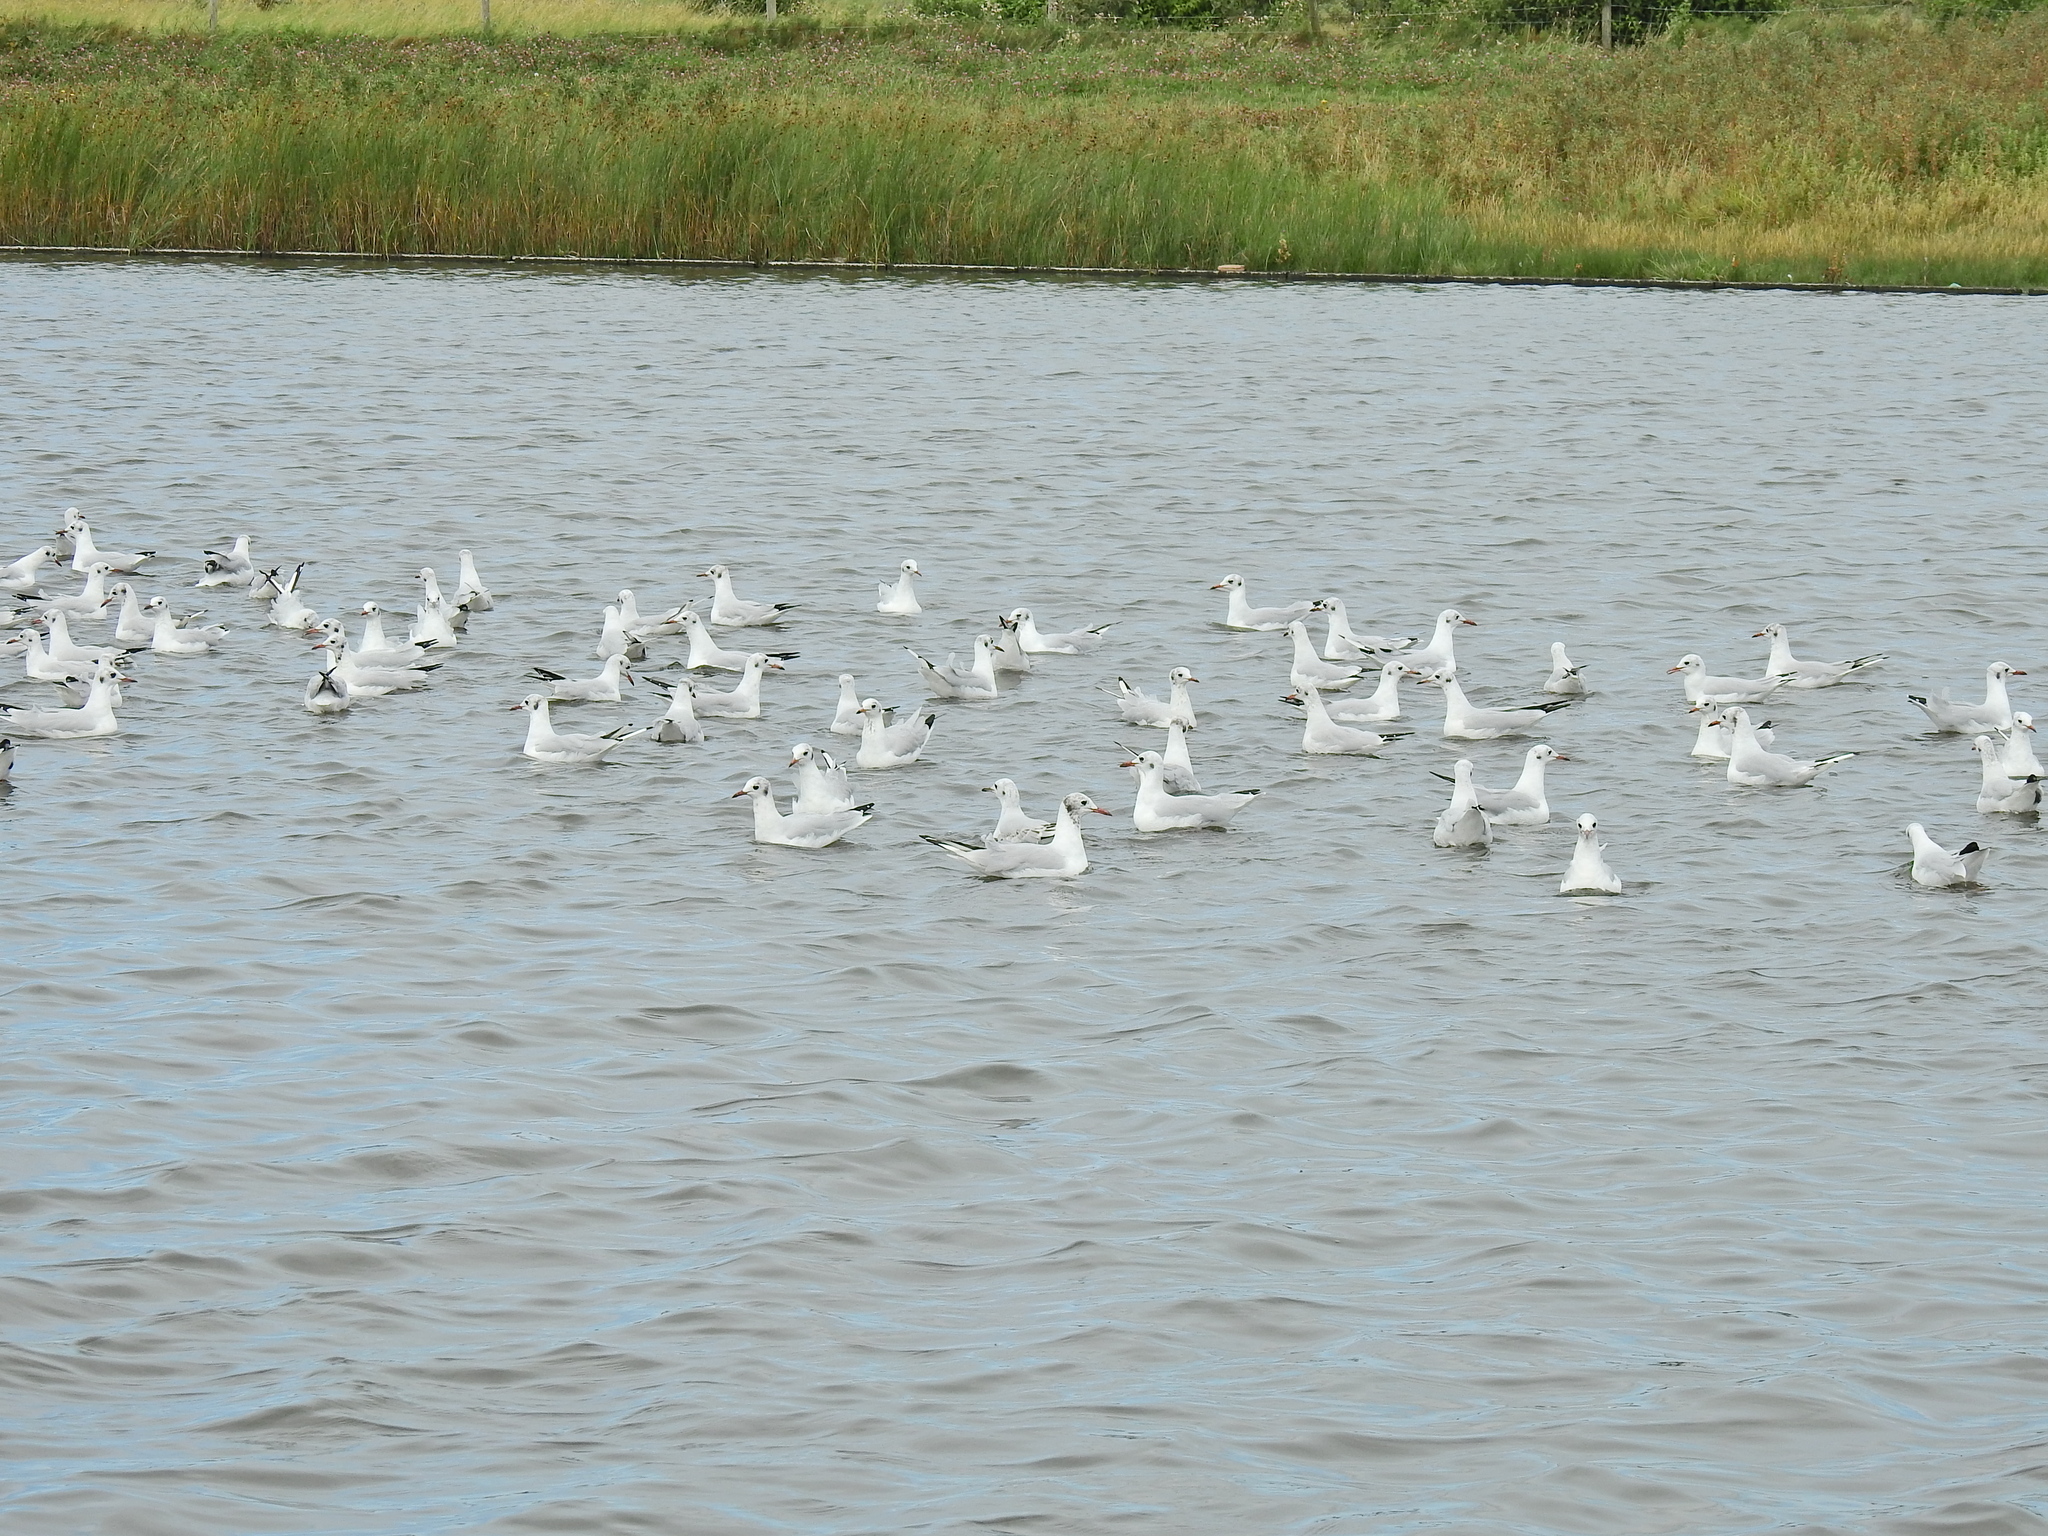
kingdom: Animalia
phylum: Chordata
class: Aves
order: Charadriiformes
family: Laridae
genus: Chroicocephalus
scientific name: Chroicocephalus ridibundus
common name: Black-headed gull
